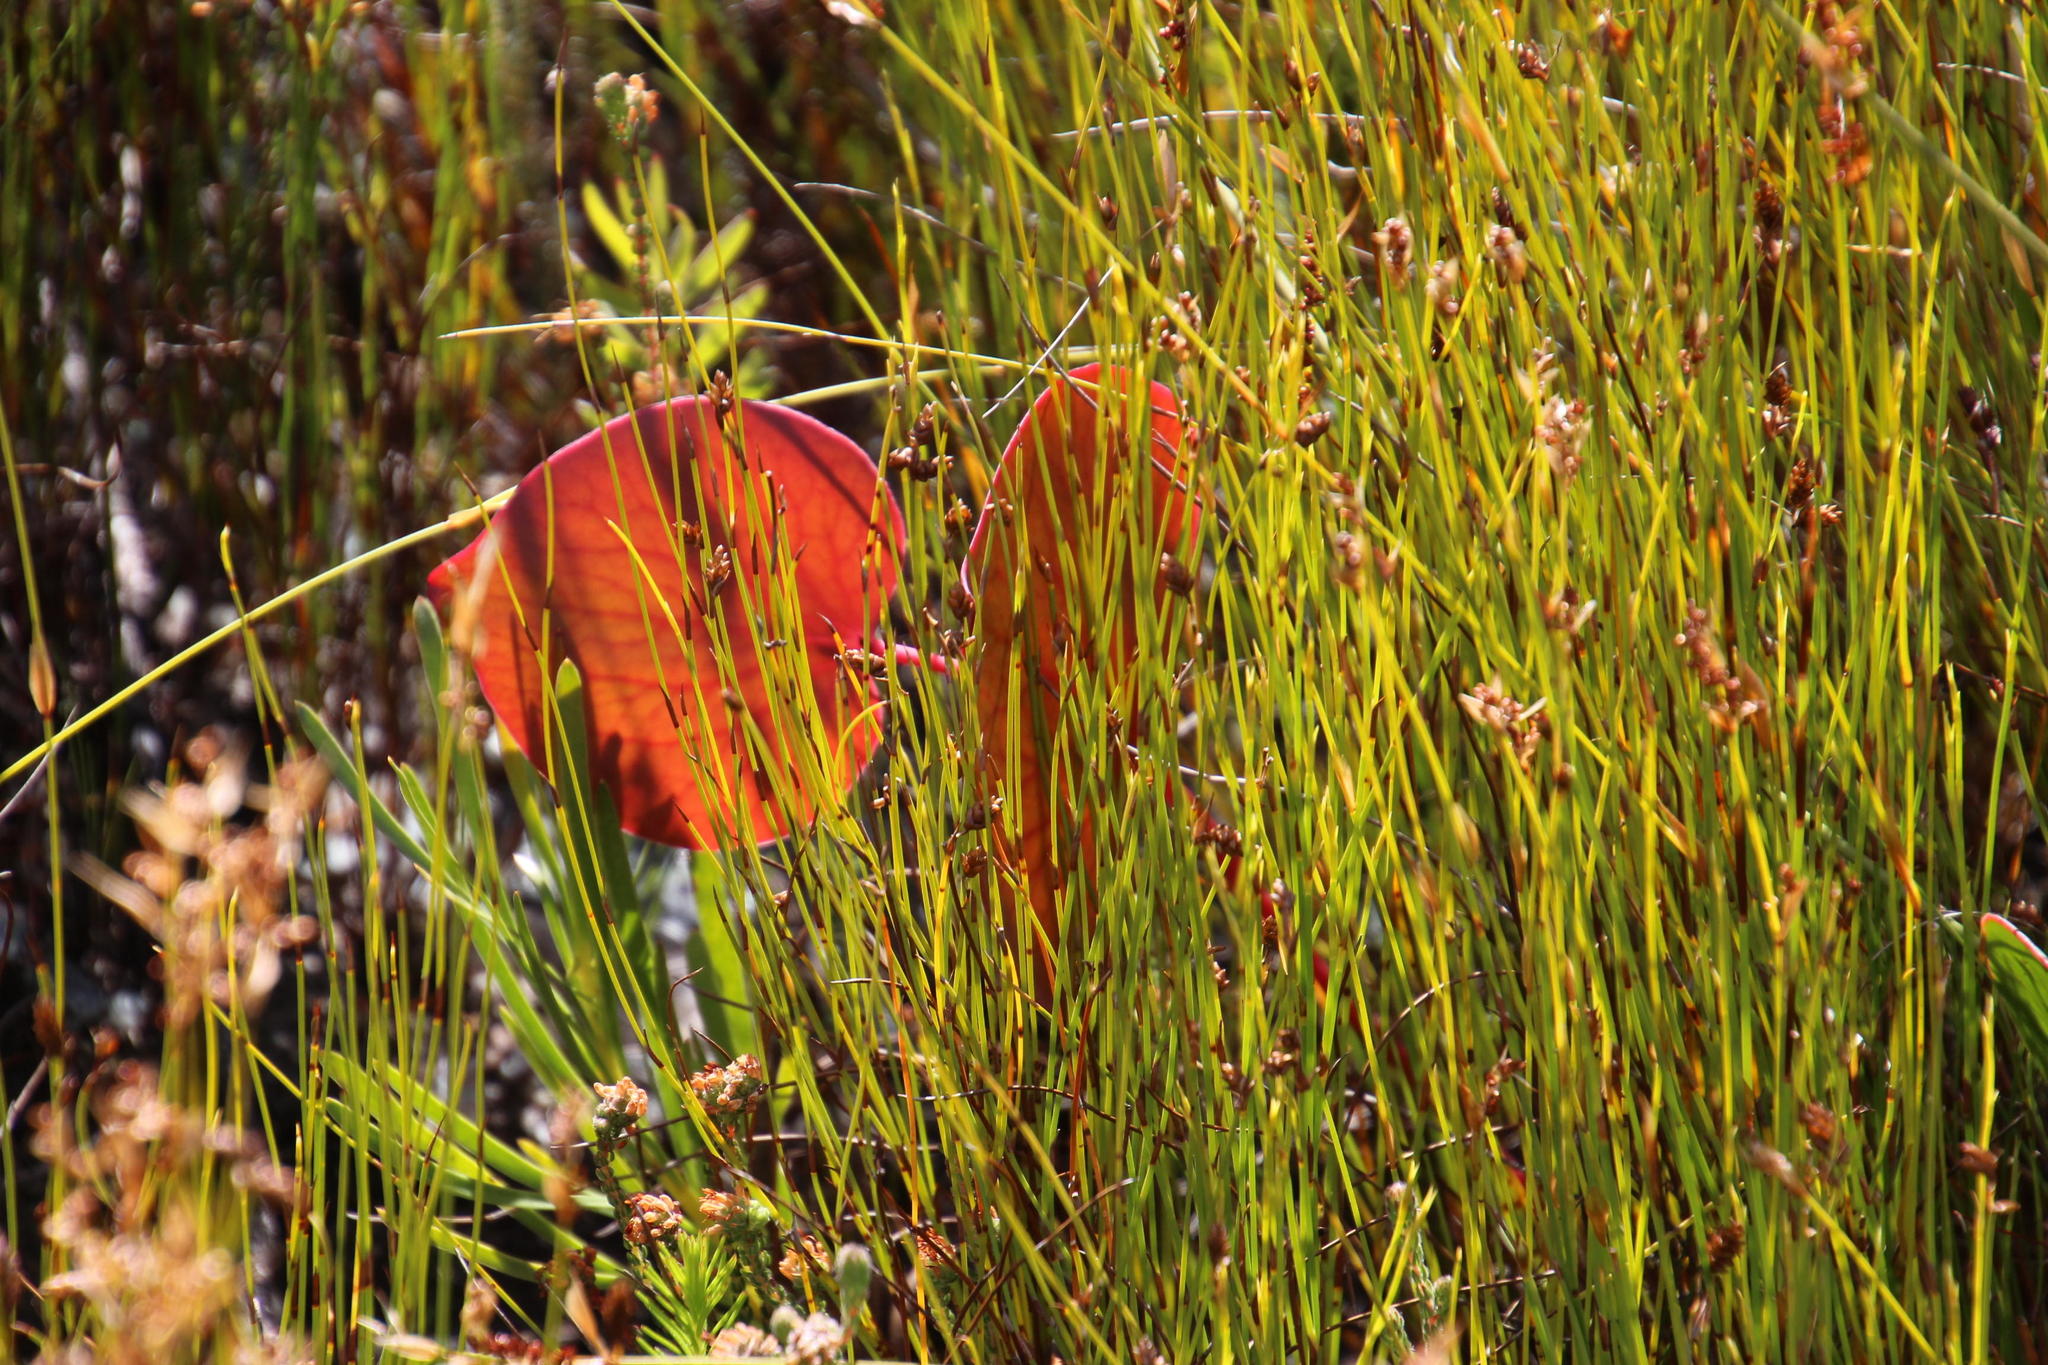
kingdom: Plantae
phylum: Tracheophyta
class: Magnoliopsida
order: Proteales
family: Proteaceae
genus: Protea
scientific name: Protea cordata
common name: Heart-leaf sugarbush
